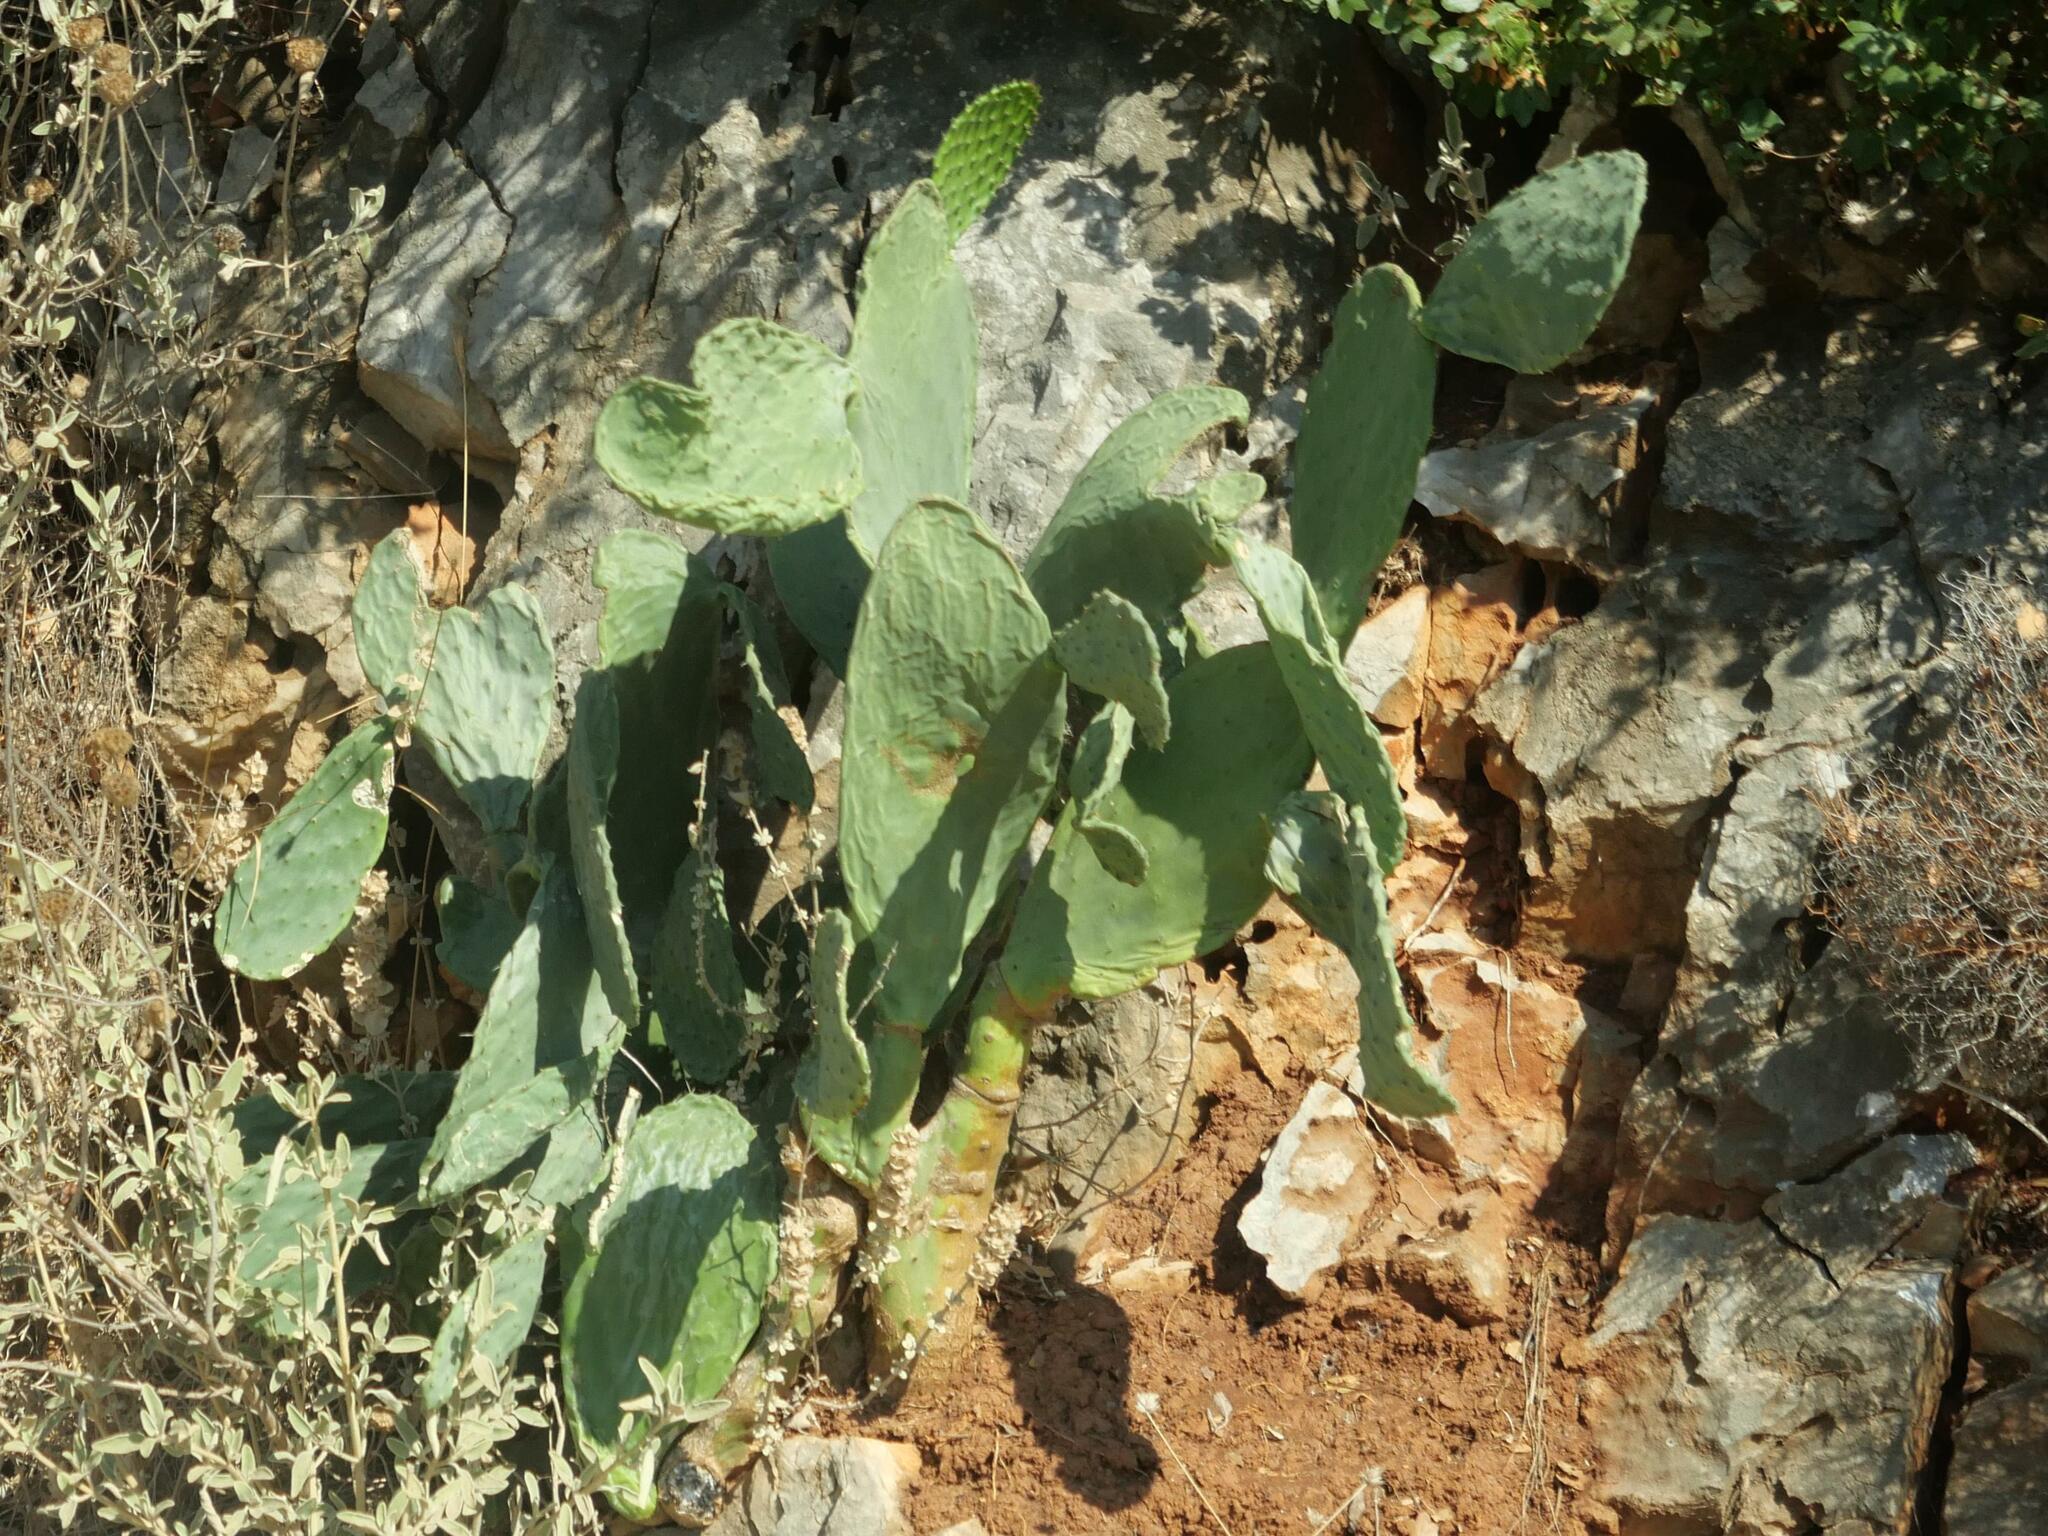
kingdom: Plantae
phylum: Tracheophyta
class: Magnoliopsida
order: Caryophyllales
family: Cactaceae
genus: Opuntia
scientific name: Opuntia ficus-indica
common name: Barbary fig
